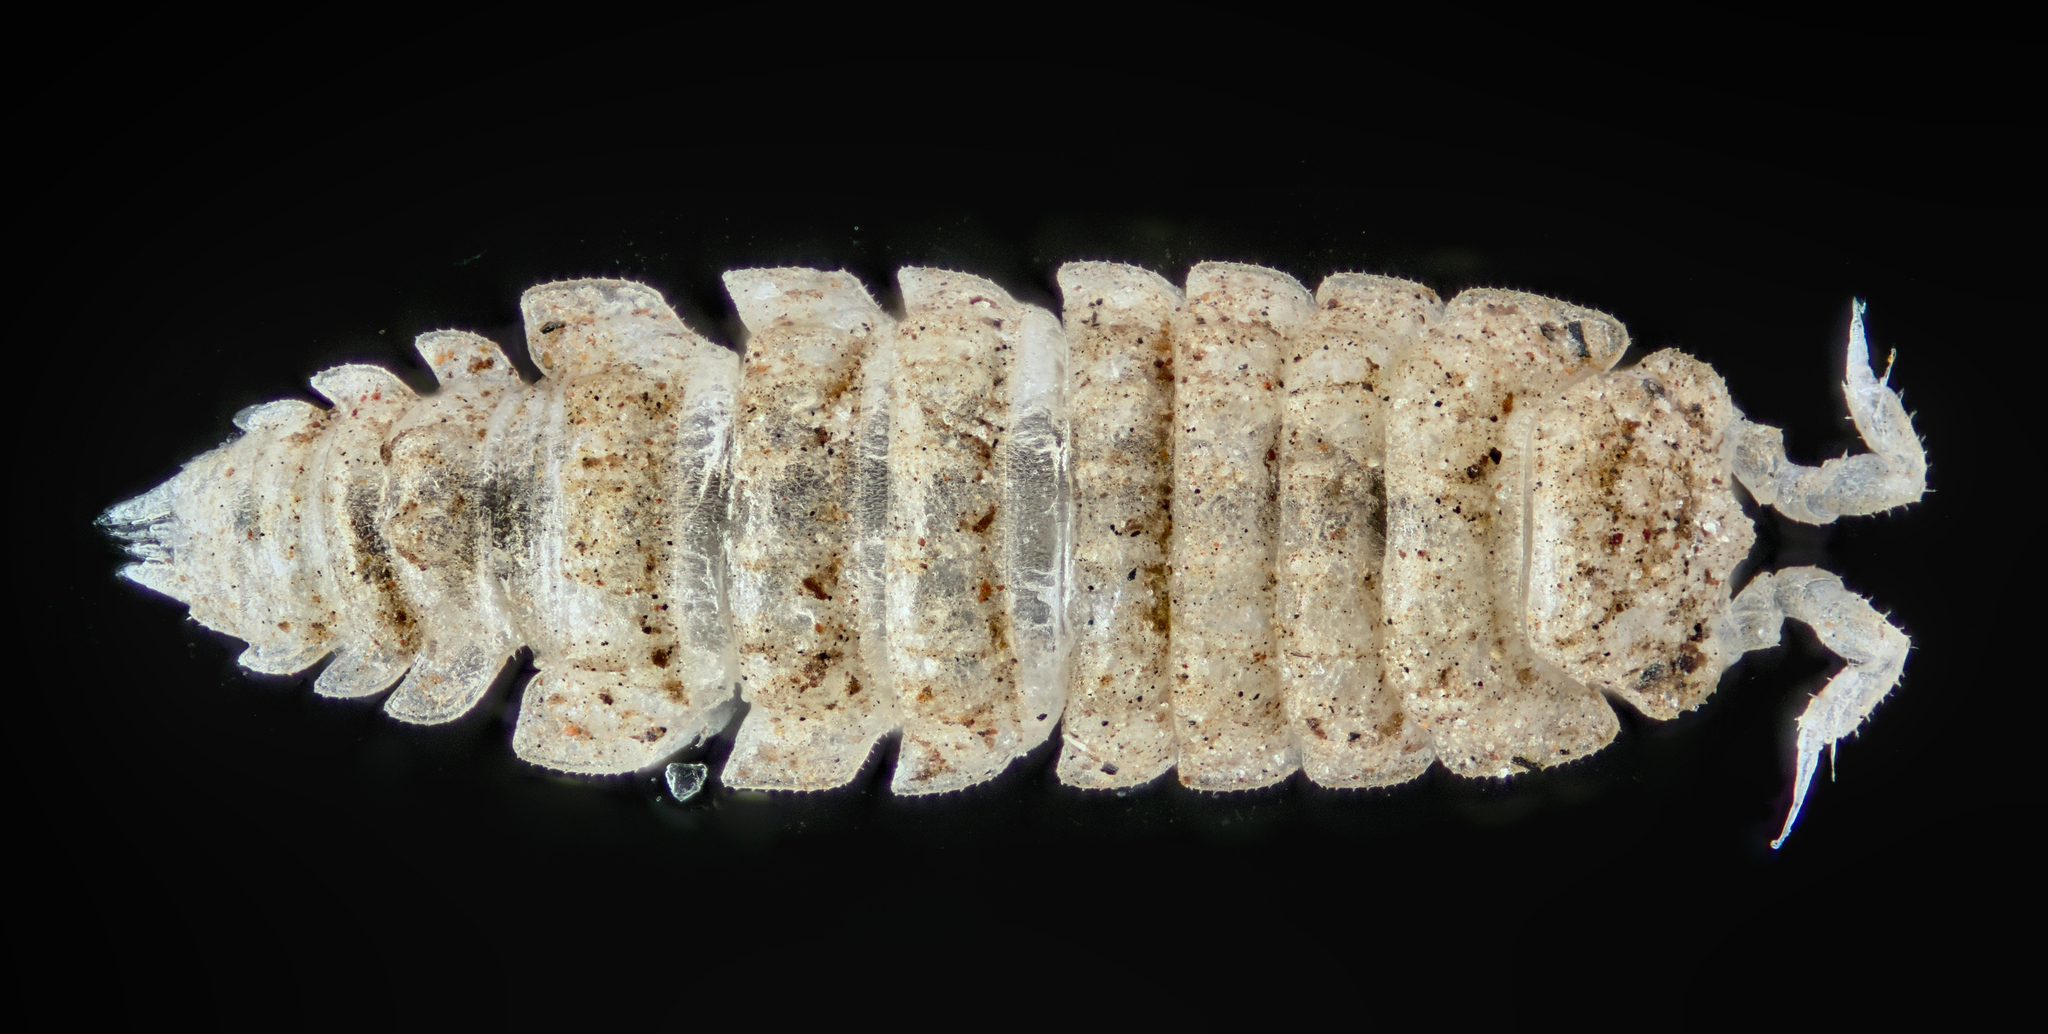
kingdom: Animalia
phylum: Arthropoda
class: Malacostraca
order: Isopoda
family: Trichoniscidae
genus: Haplophthalmus
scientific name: Haplophthalmus
